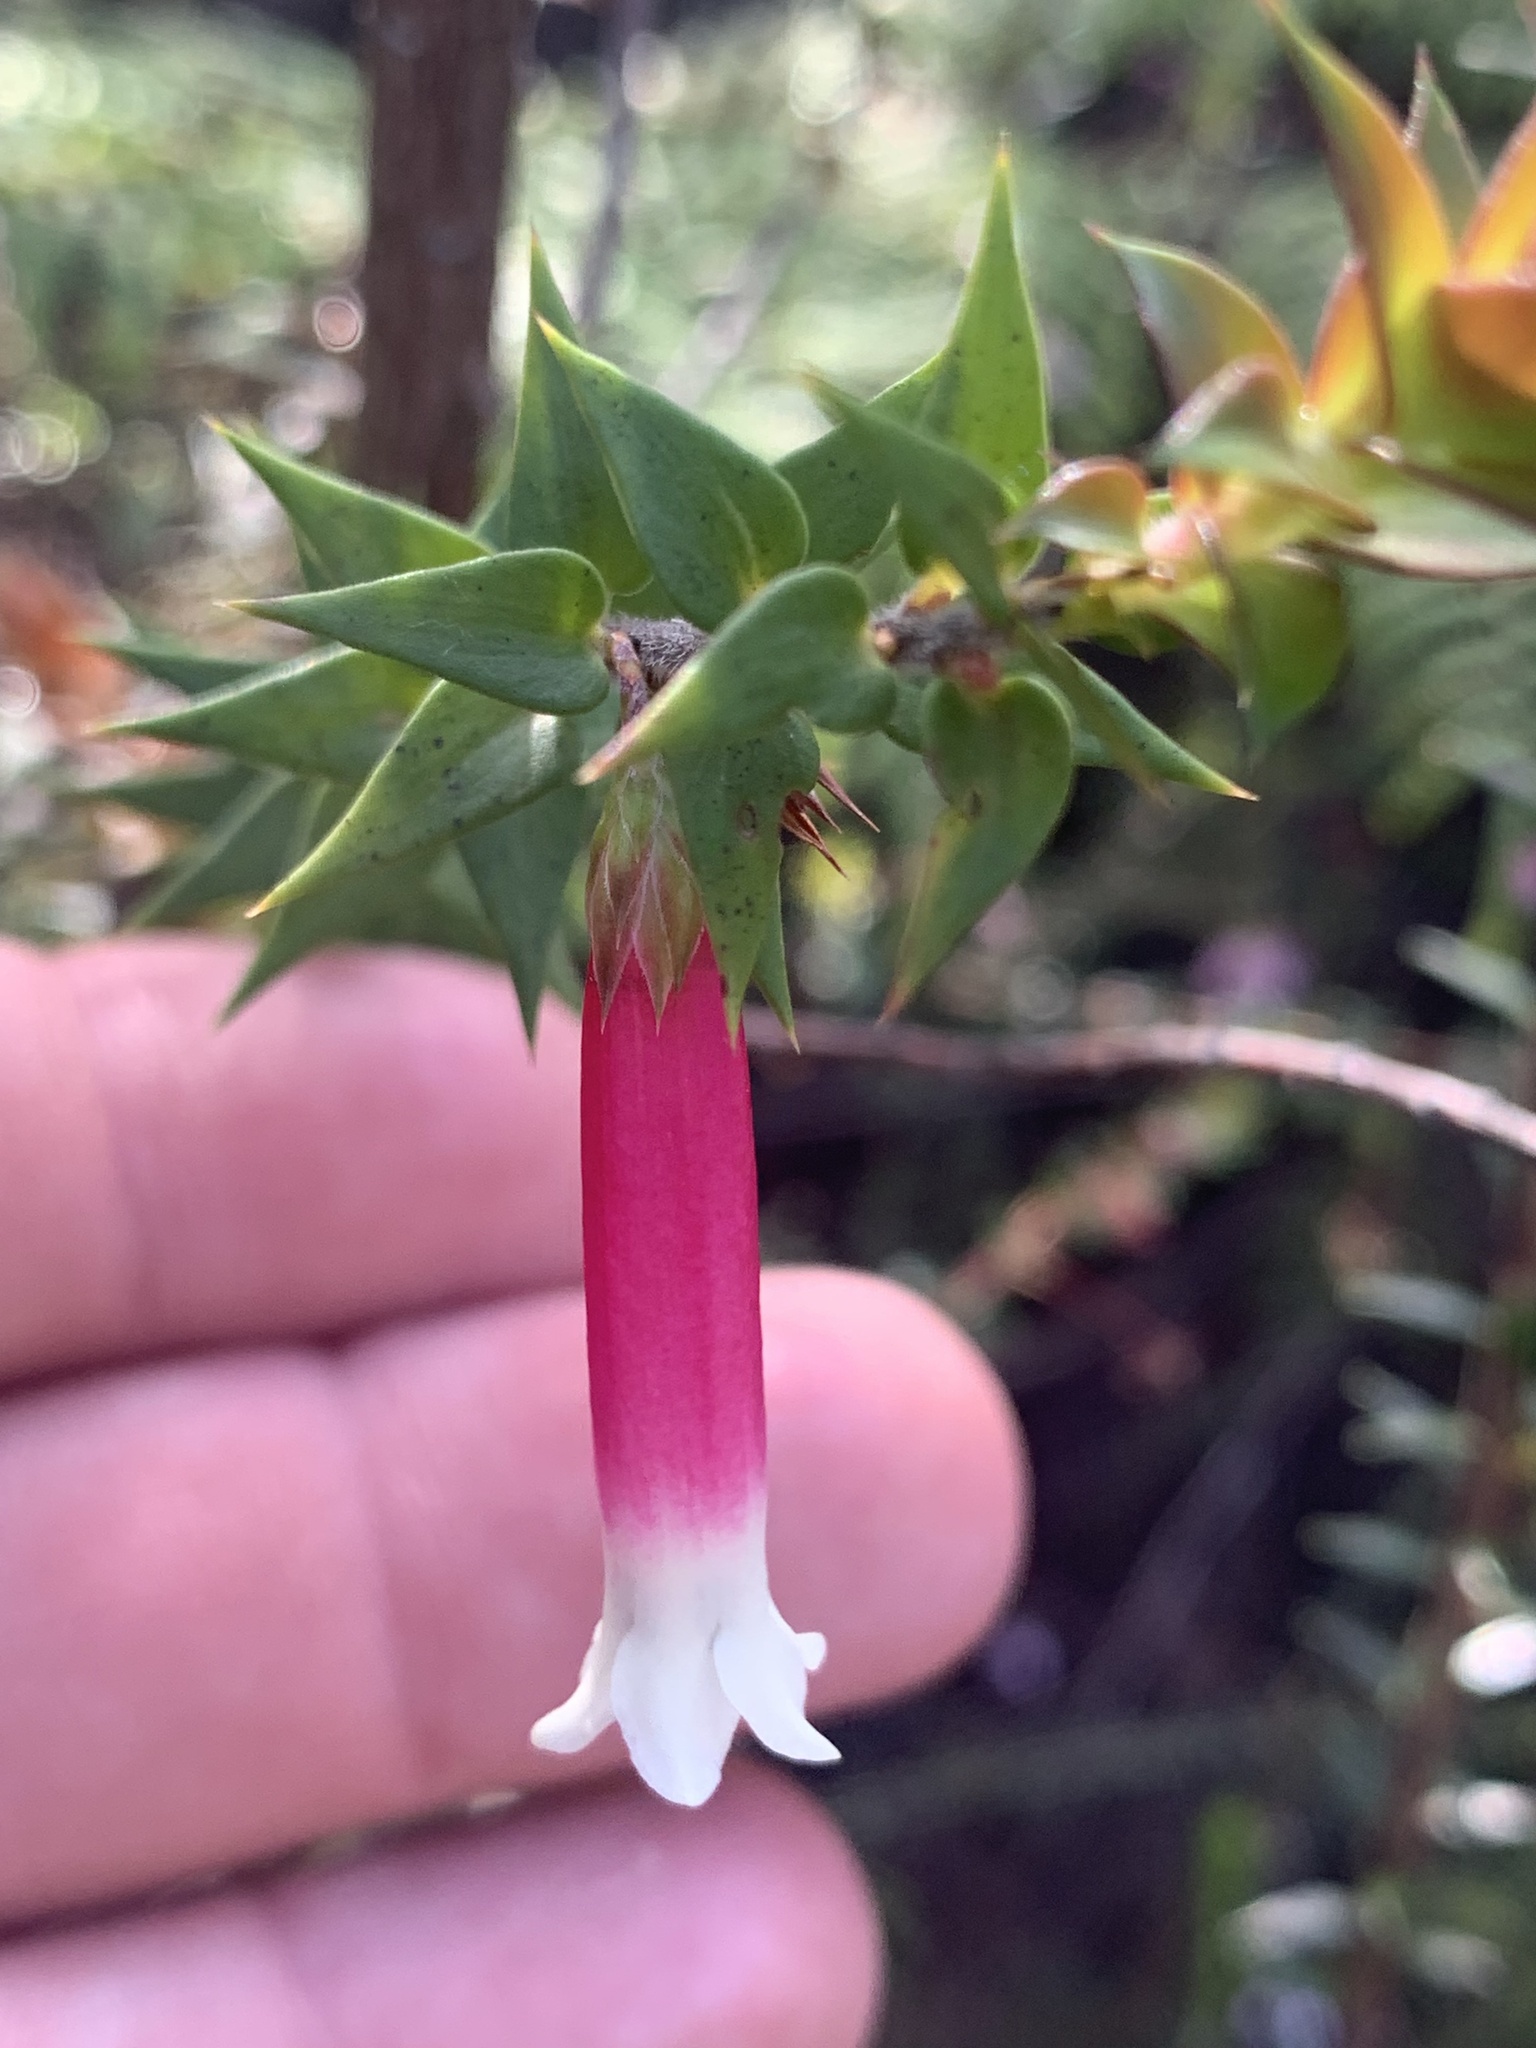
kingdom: Plantae
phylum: Tracheophyta
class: Magnoliopsida
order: Ericales
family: Ericaceae
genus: Epacris
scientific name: Epacris longiflora
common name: Fuchsia-heath
